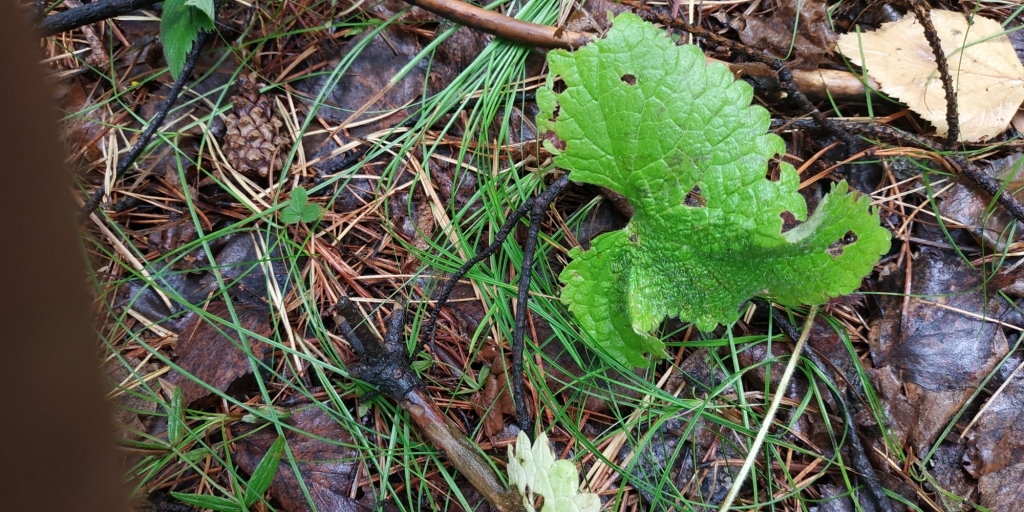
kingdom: Plantae
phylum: Tracheophyta
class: Magnoliopsida
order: Lamiales
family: Lamiaceae
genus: Phlomoides
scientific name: Phlomoides tuberosa
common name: Tuberous jerusalem sage
